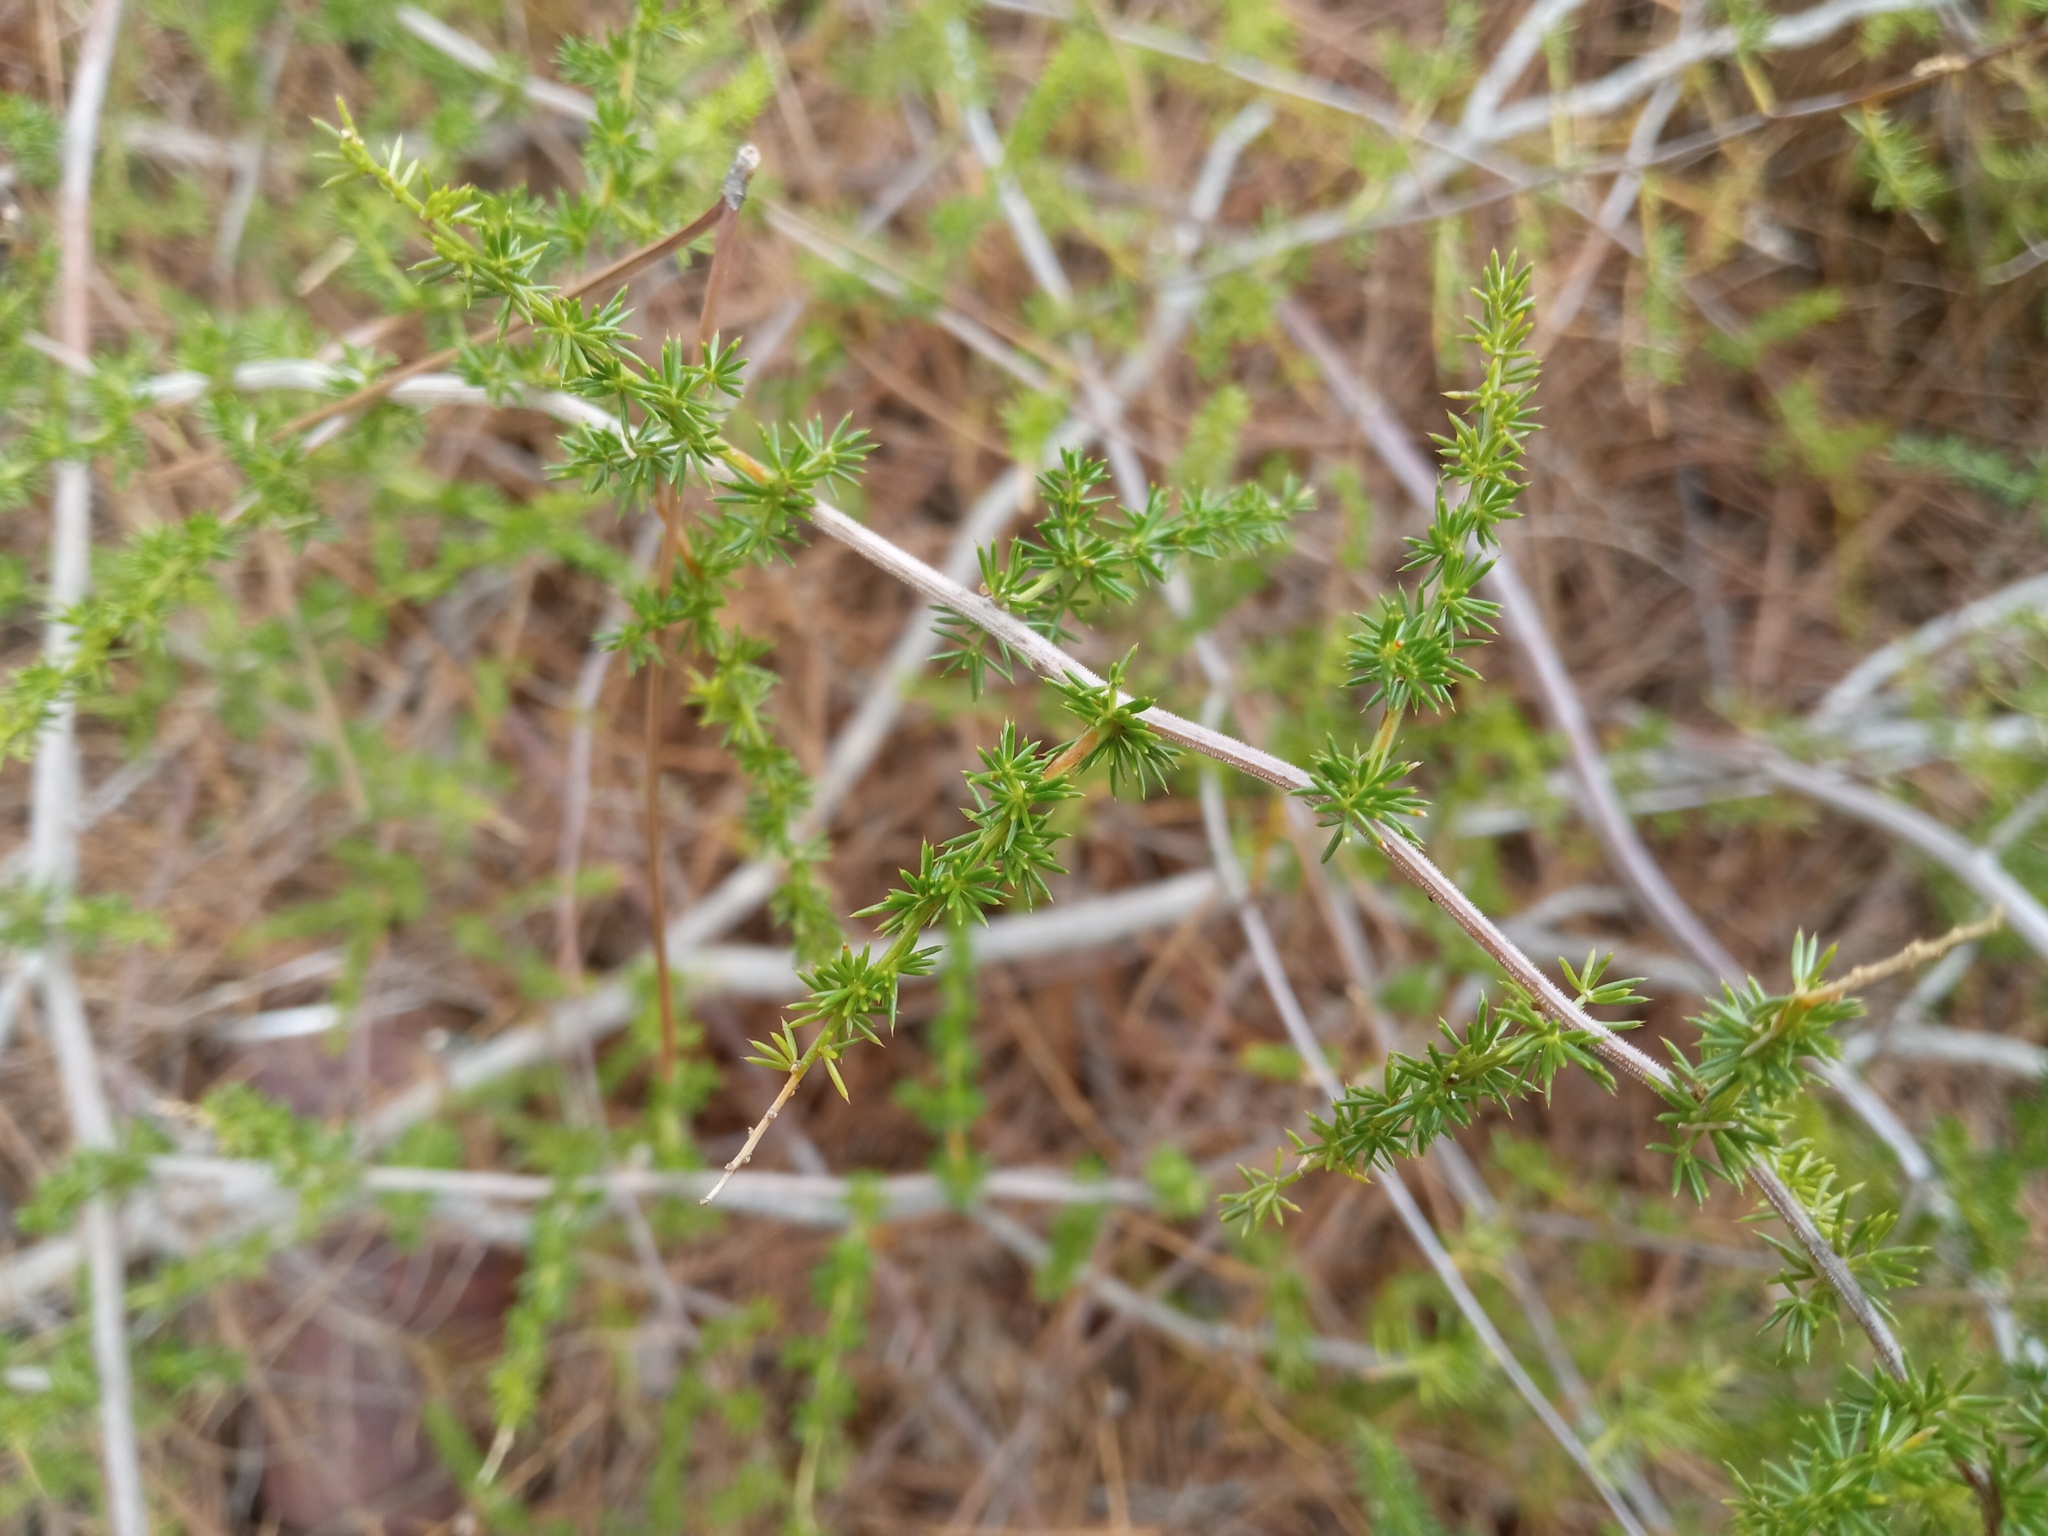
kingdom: Plantae
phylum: Tracheophyta
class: Liliopsida
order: Asparagales
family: Asparagaceae
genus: Asparagus
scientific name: Asparagus acutifolius
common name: Wild asparagus
